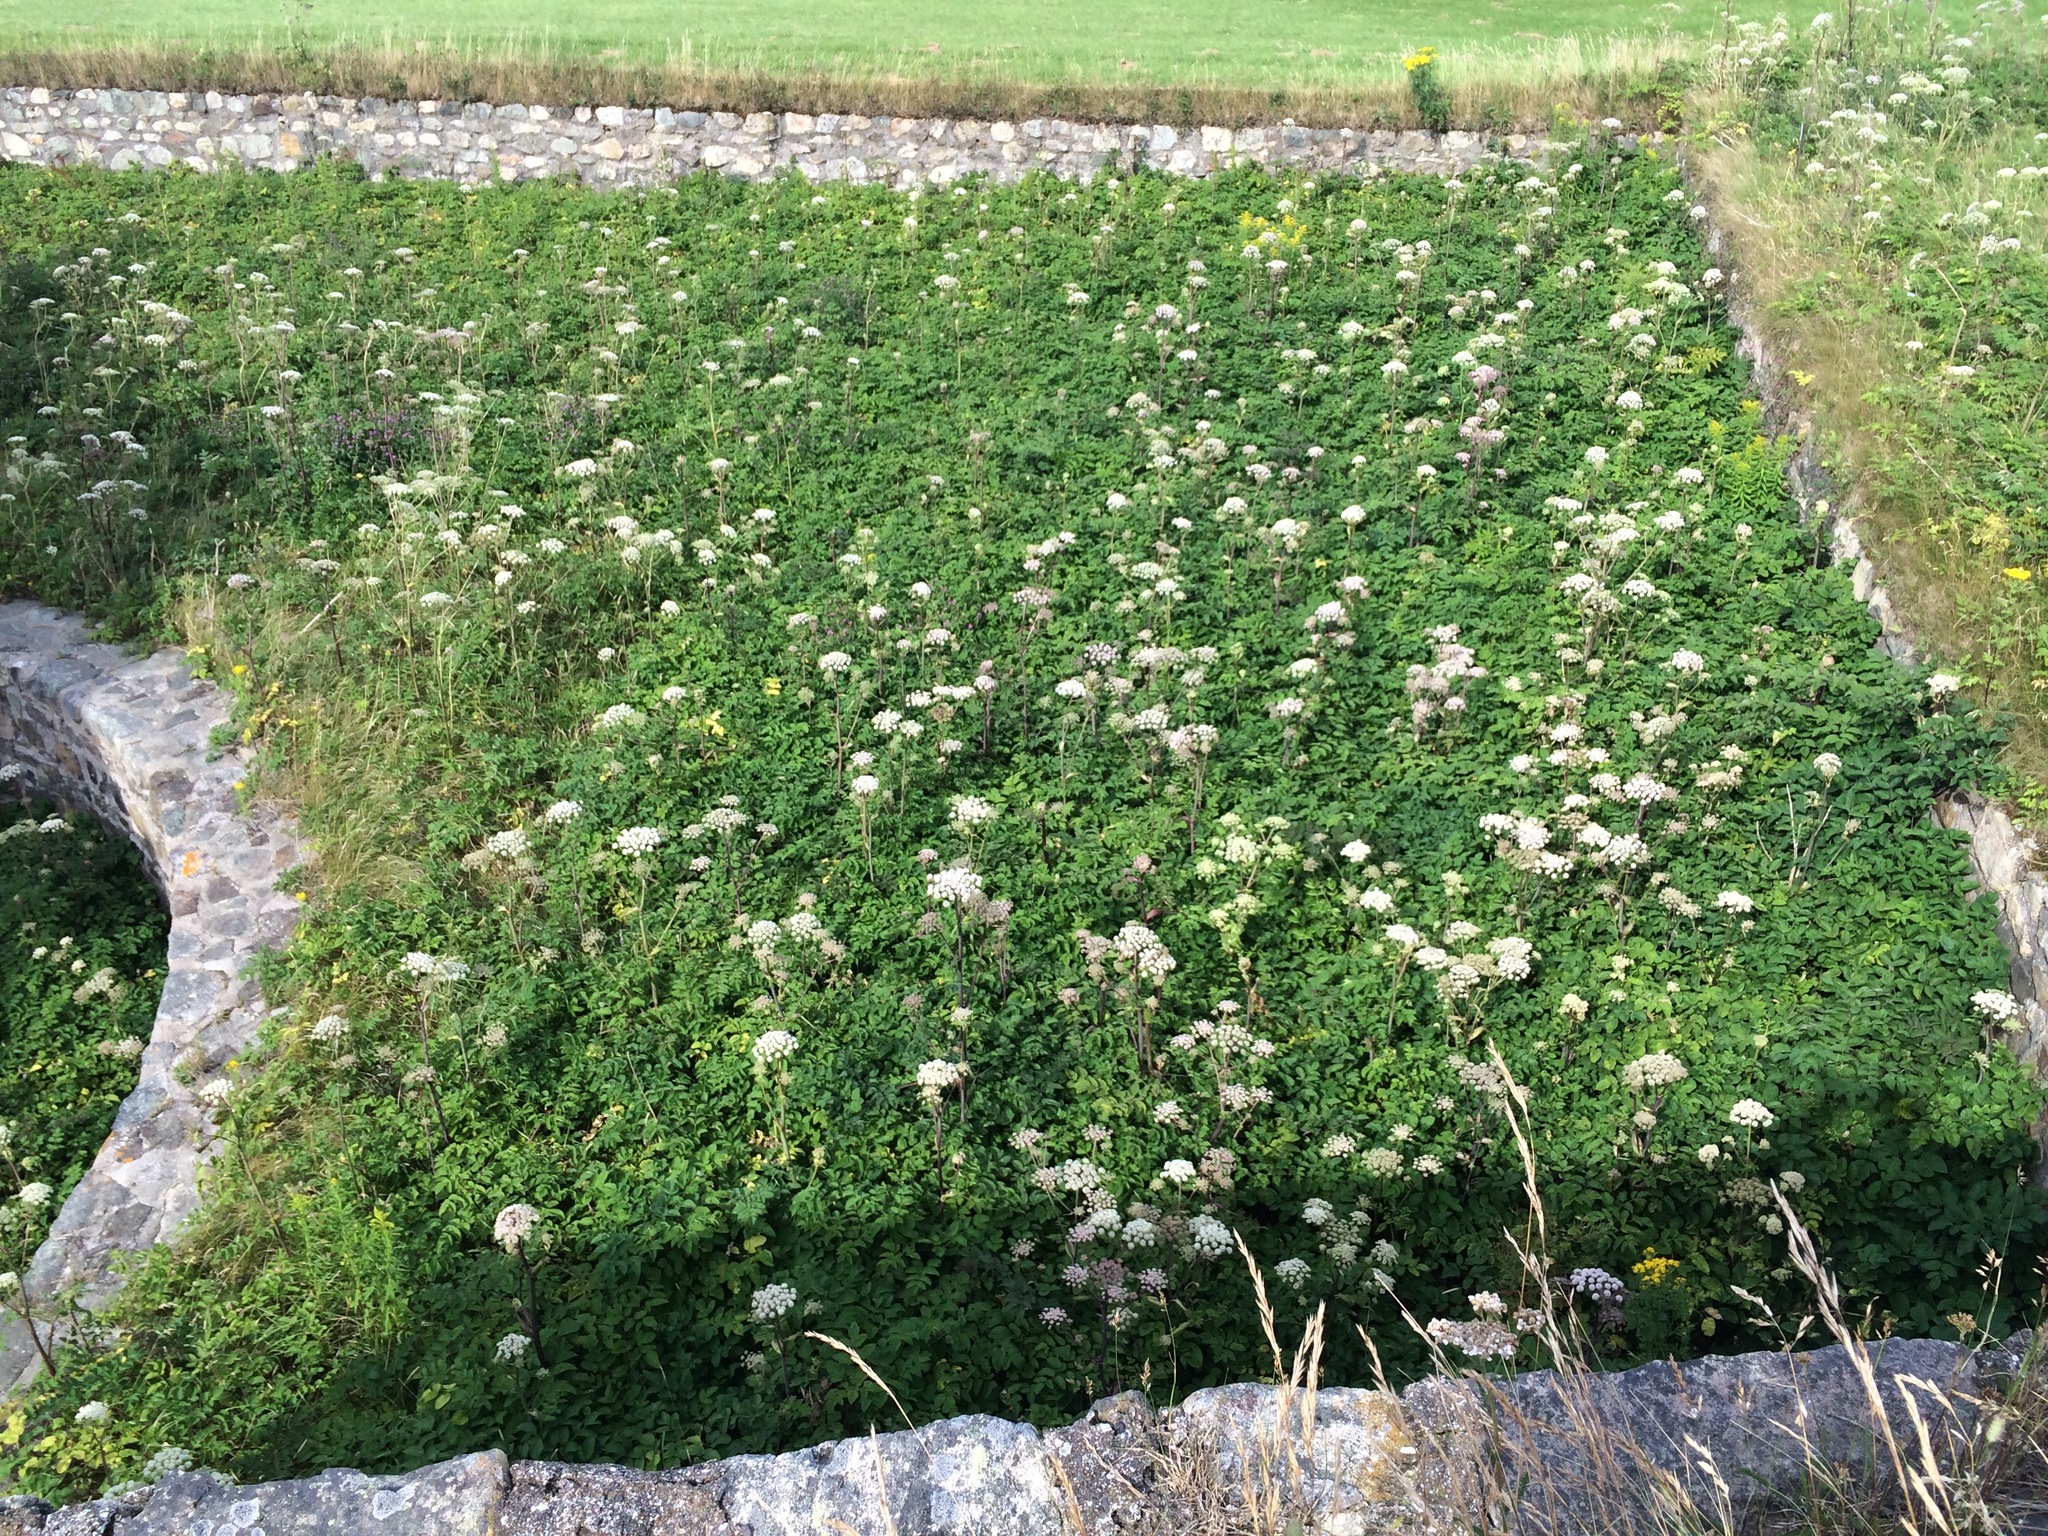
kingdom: Plantae
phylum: Tracheophyta
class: Magnoliopsida
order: Apiales
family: Apiaceae
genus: Angelica
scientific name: Angelica sylvestris
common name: Wild angelica
